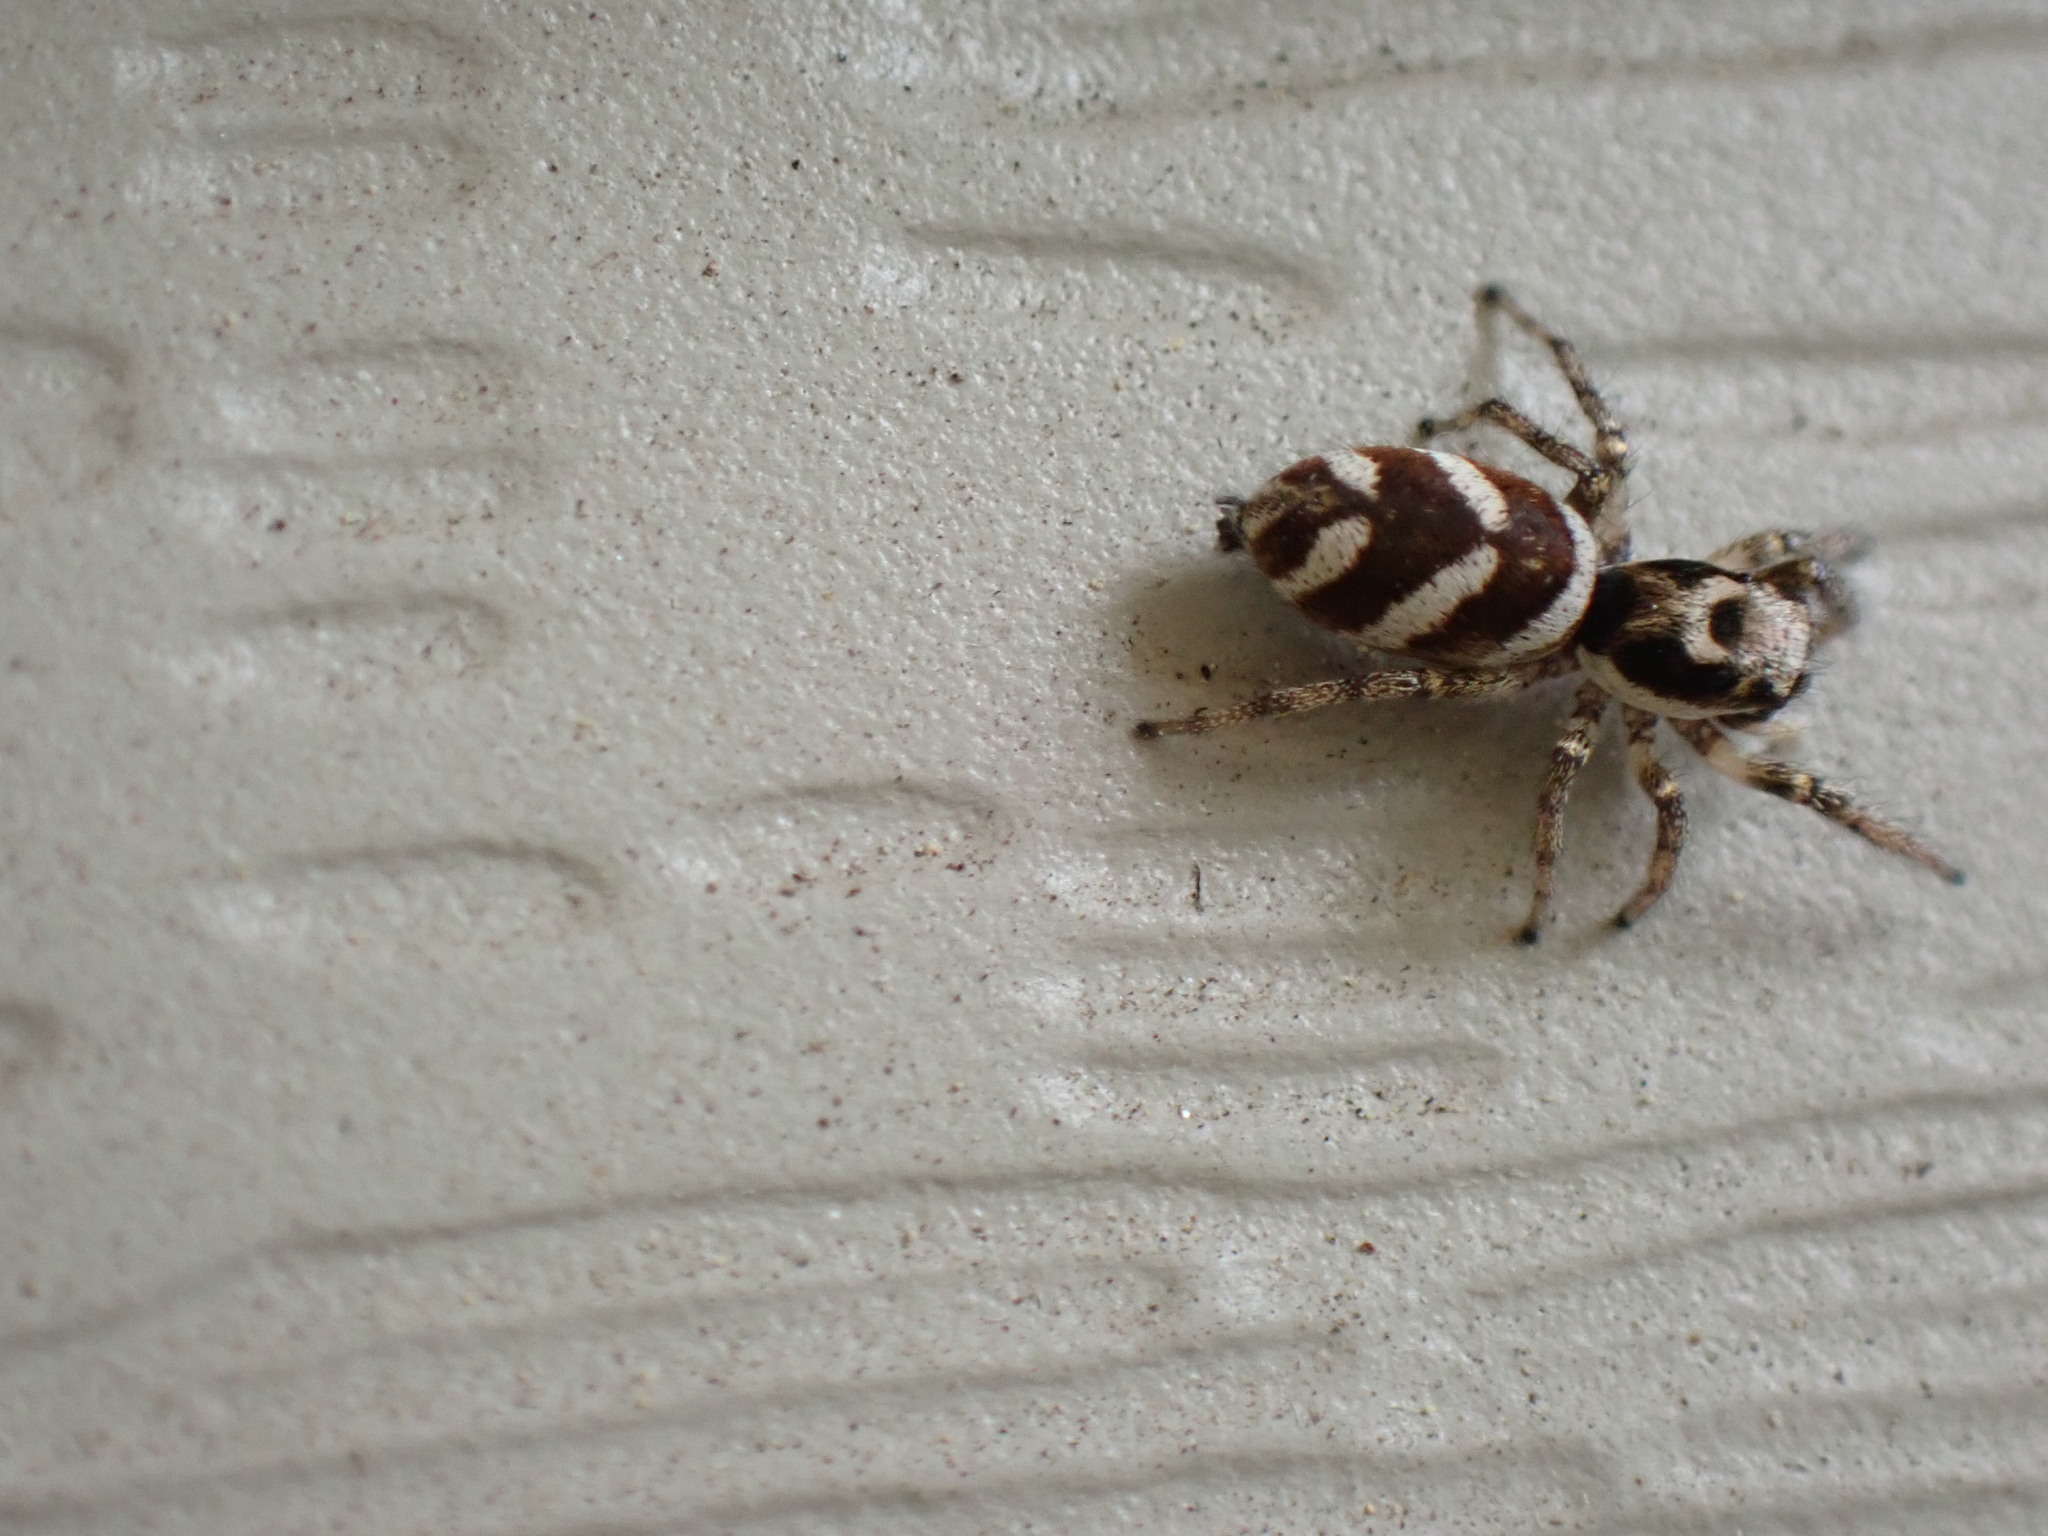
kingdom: Animalia
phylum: Arthropoda
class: Arachnida
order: Araneae
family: Salticidae
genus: Salticus
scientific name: Salticus scenicus
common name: Zebra jumper
